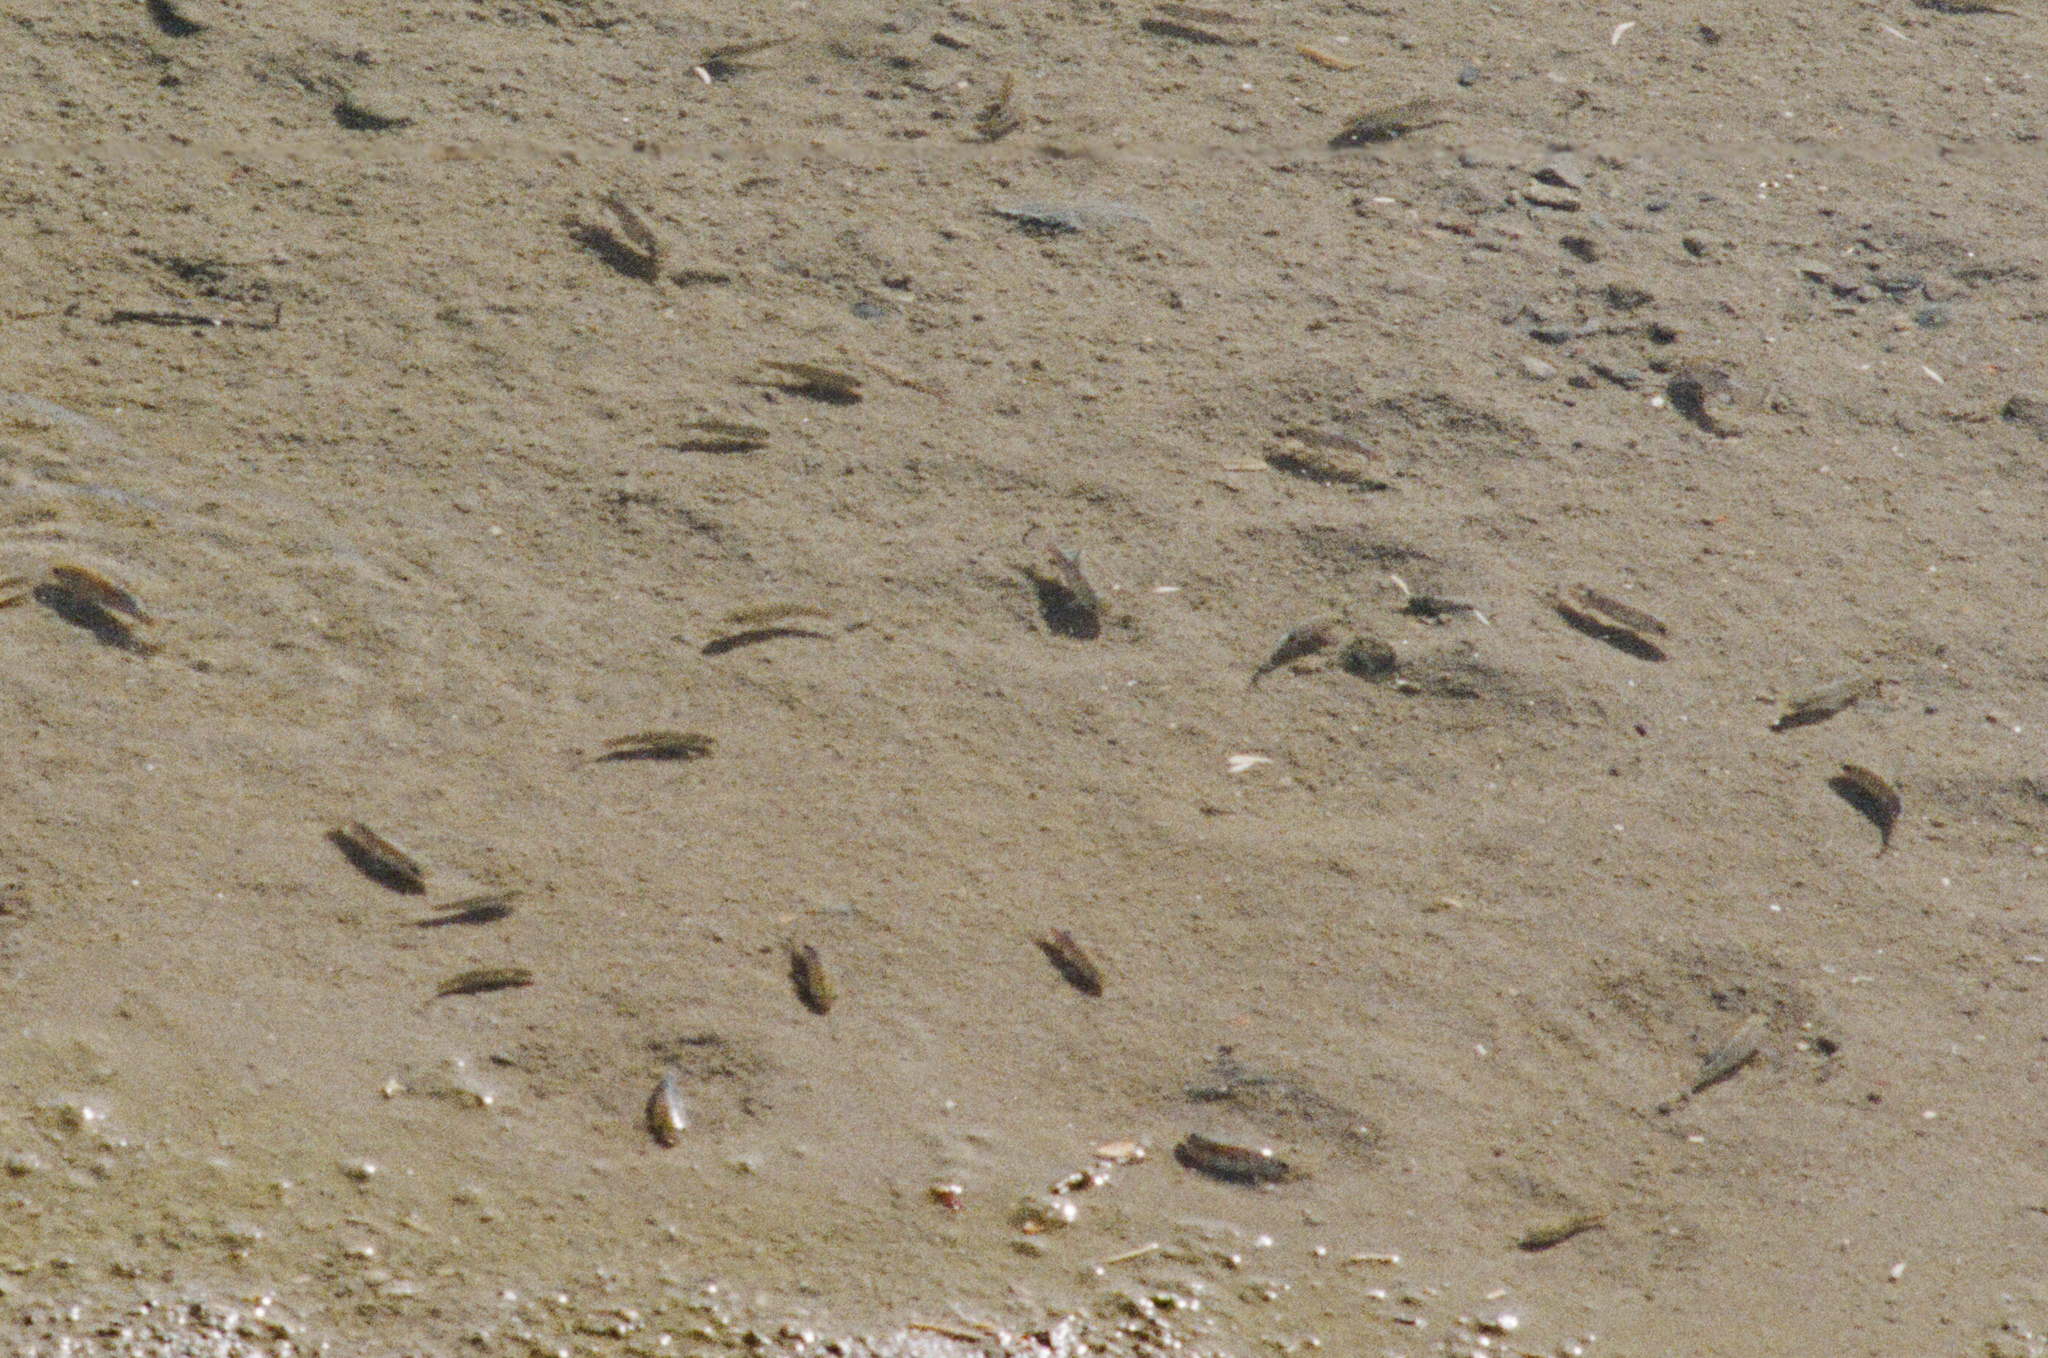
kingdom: Animalia
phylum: Chordata
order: Cyprinodontiformes
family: Cyprinodontidae
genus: Cyprinodon
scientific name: Cyprinodon salinus
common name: Cottonball marsh pupfish
